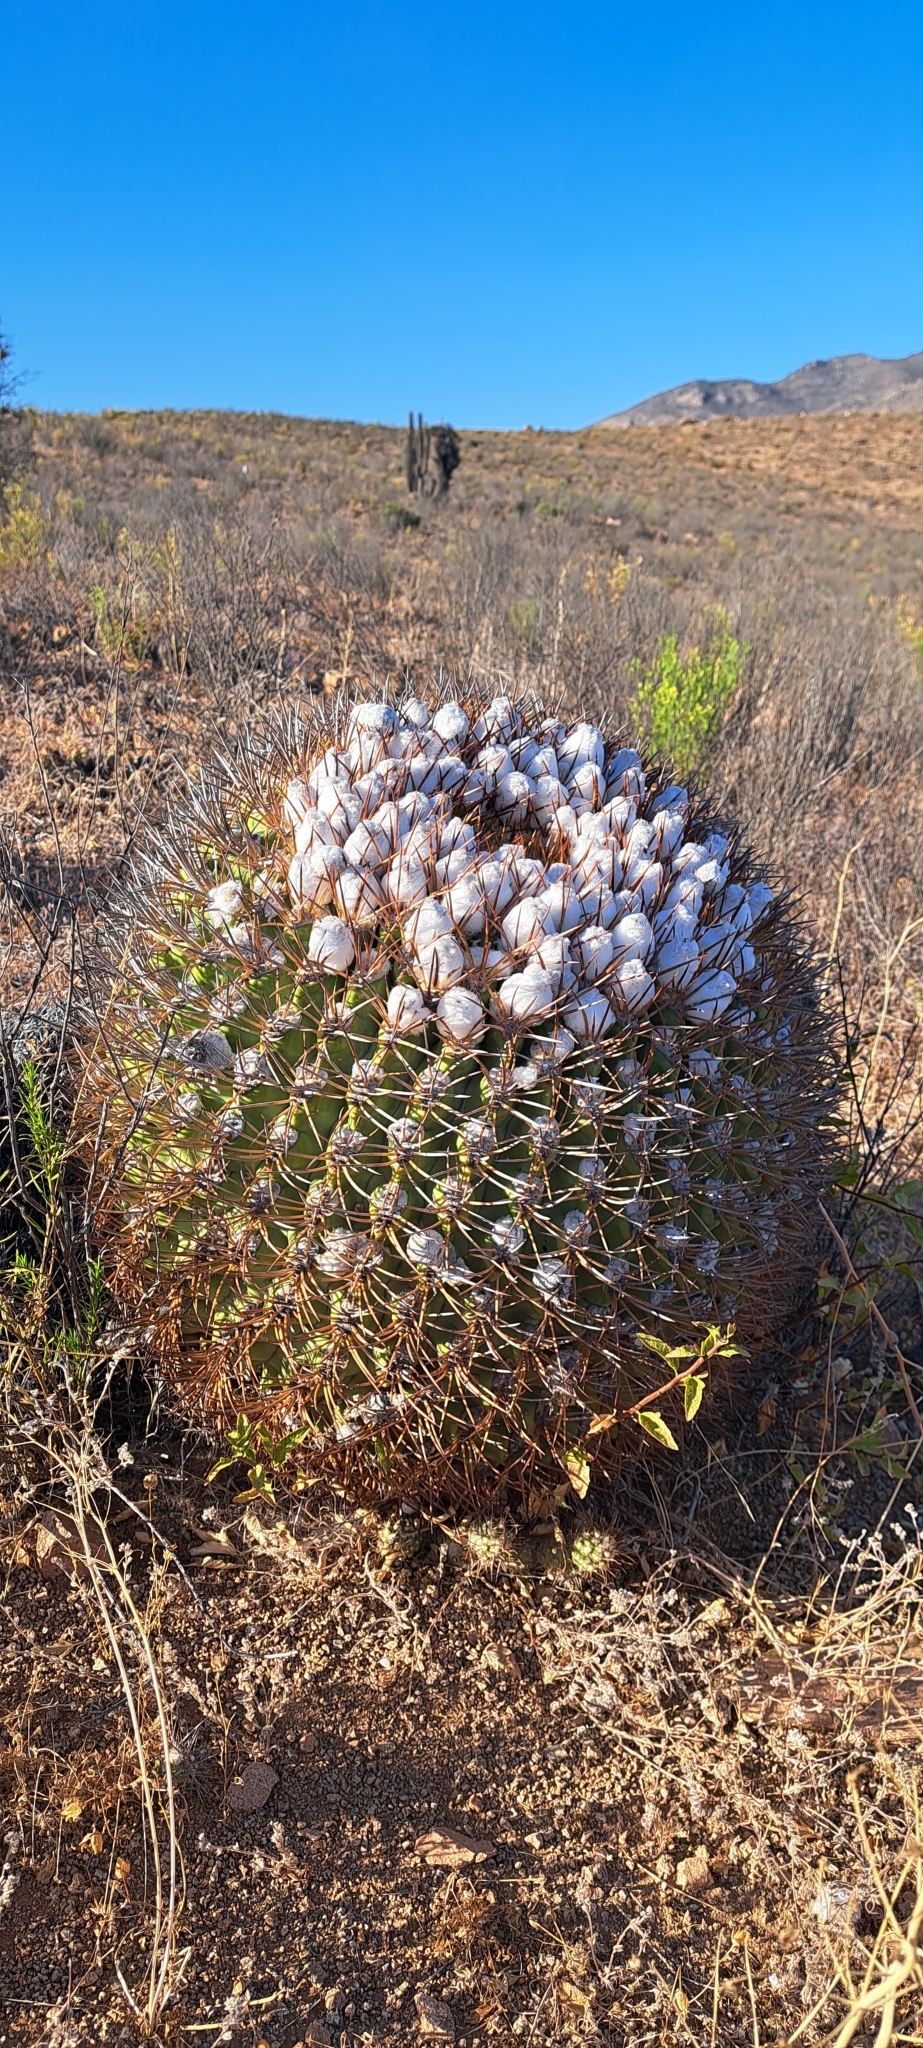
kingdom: Plantae
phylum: Tracheophyta
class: Magnoliopsida
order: Caryophyllales
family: Cactaceae
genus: Eriosyce
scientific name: Eriosyce aurata
